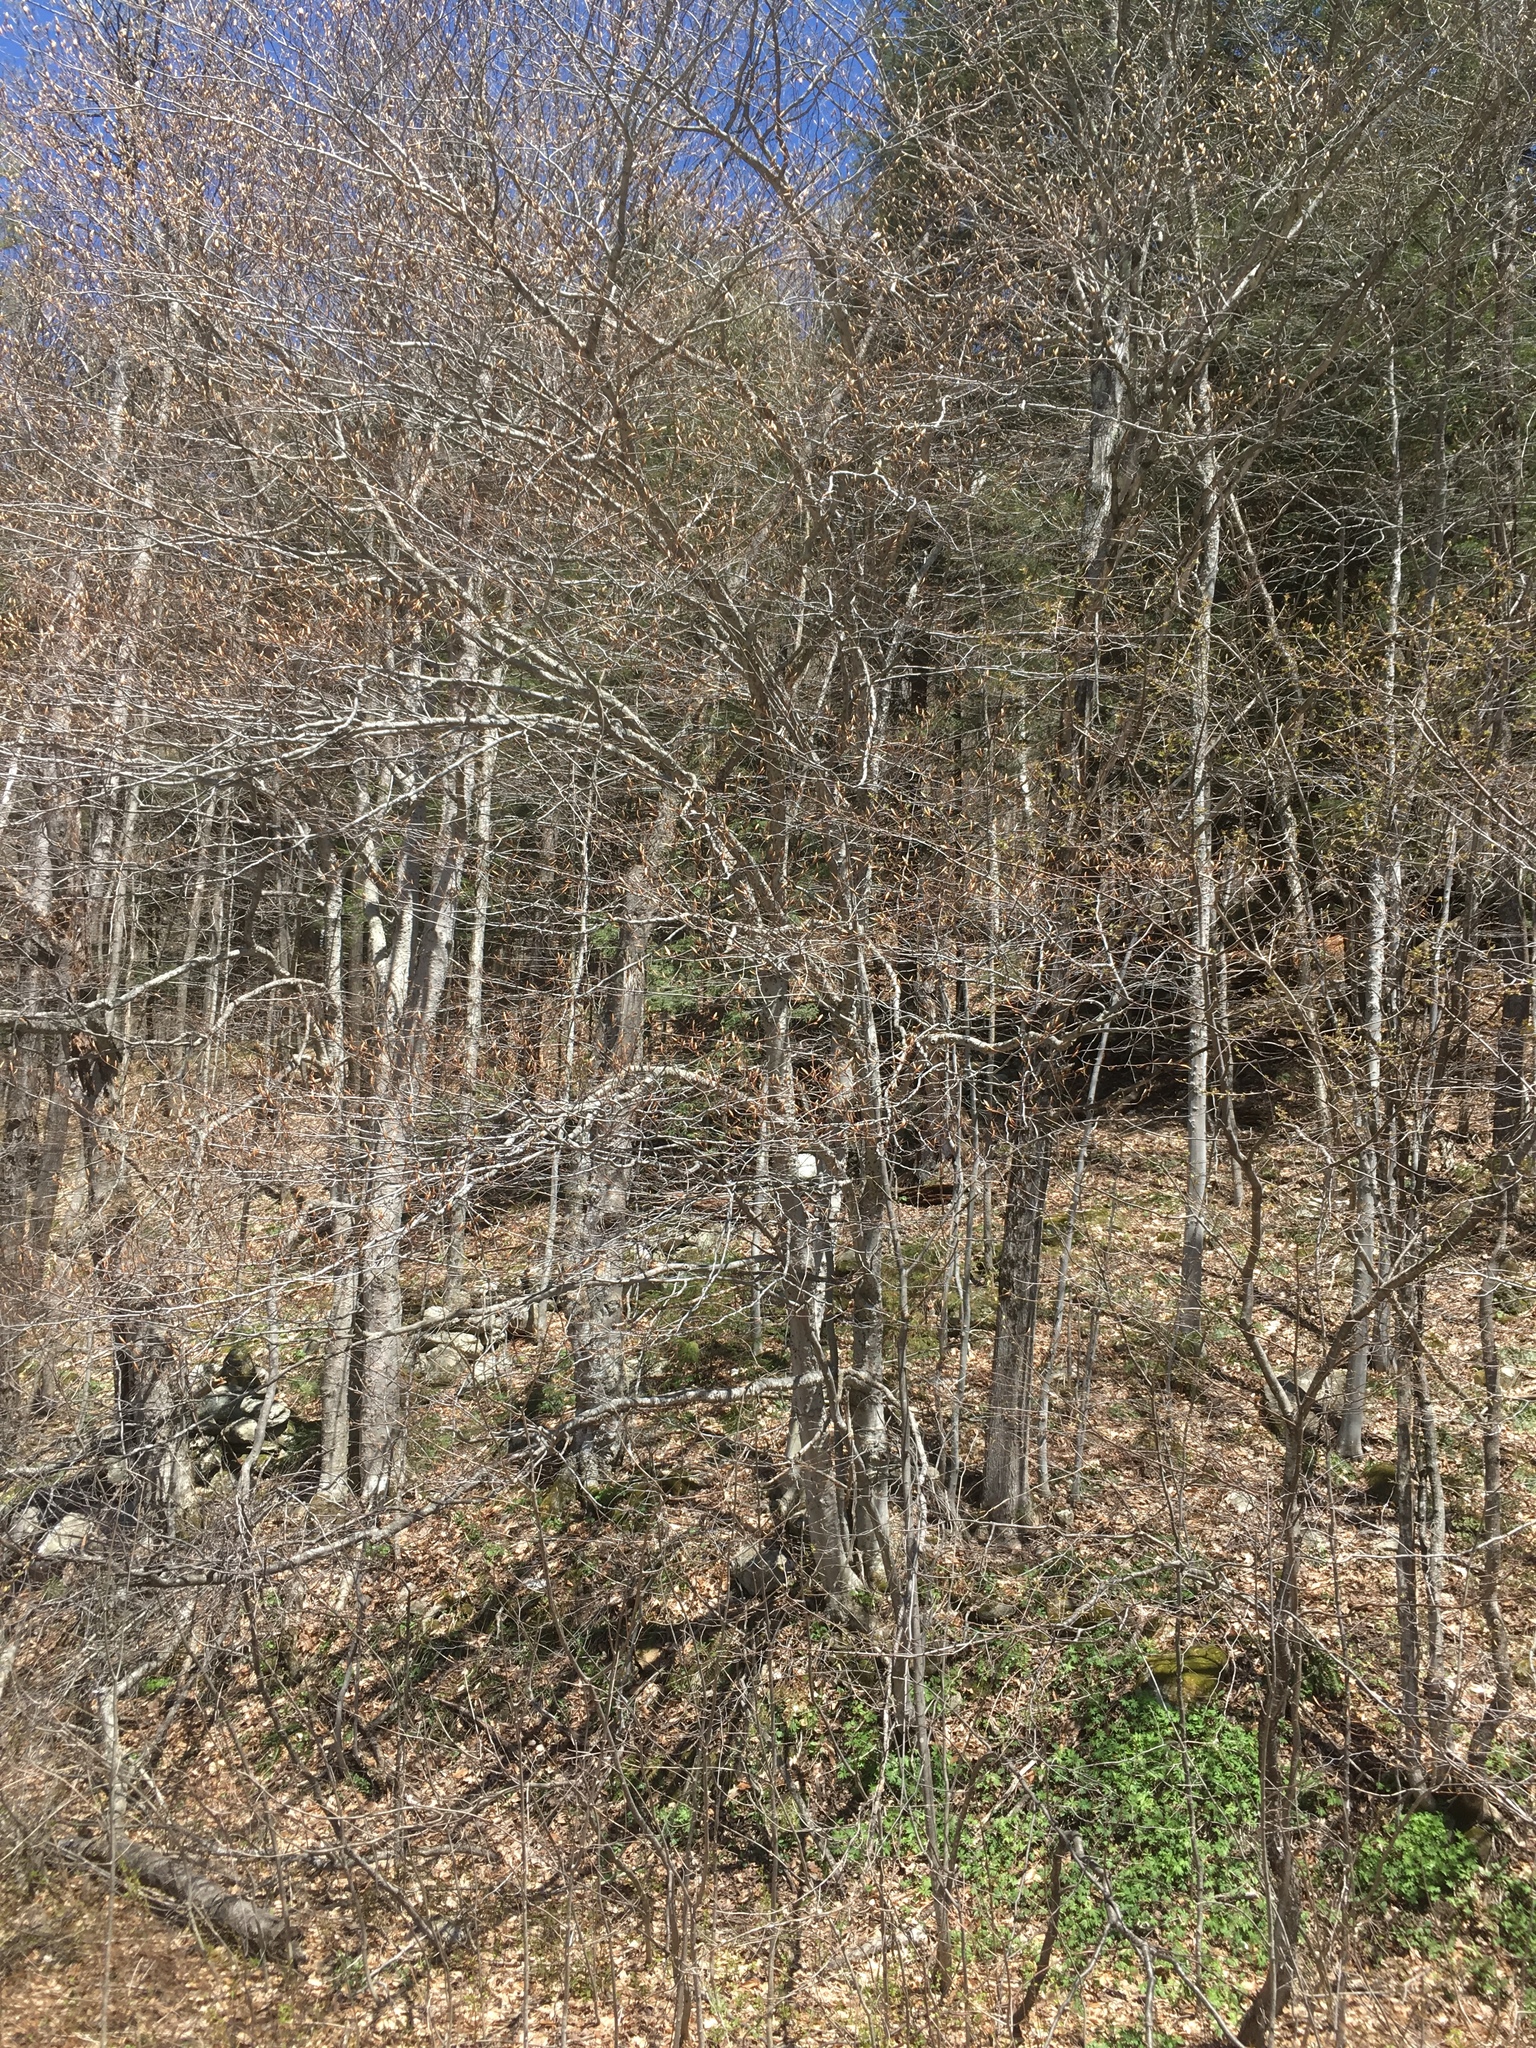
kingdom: Plantae
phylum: Tracheophyta
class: Magnoliopsida
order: Fagales
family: Fagaceae
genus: Fagus
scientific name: Fagus grandifolia
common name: American beech
